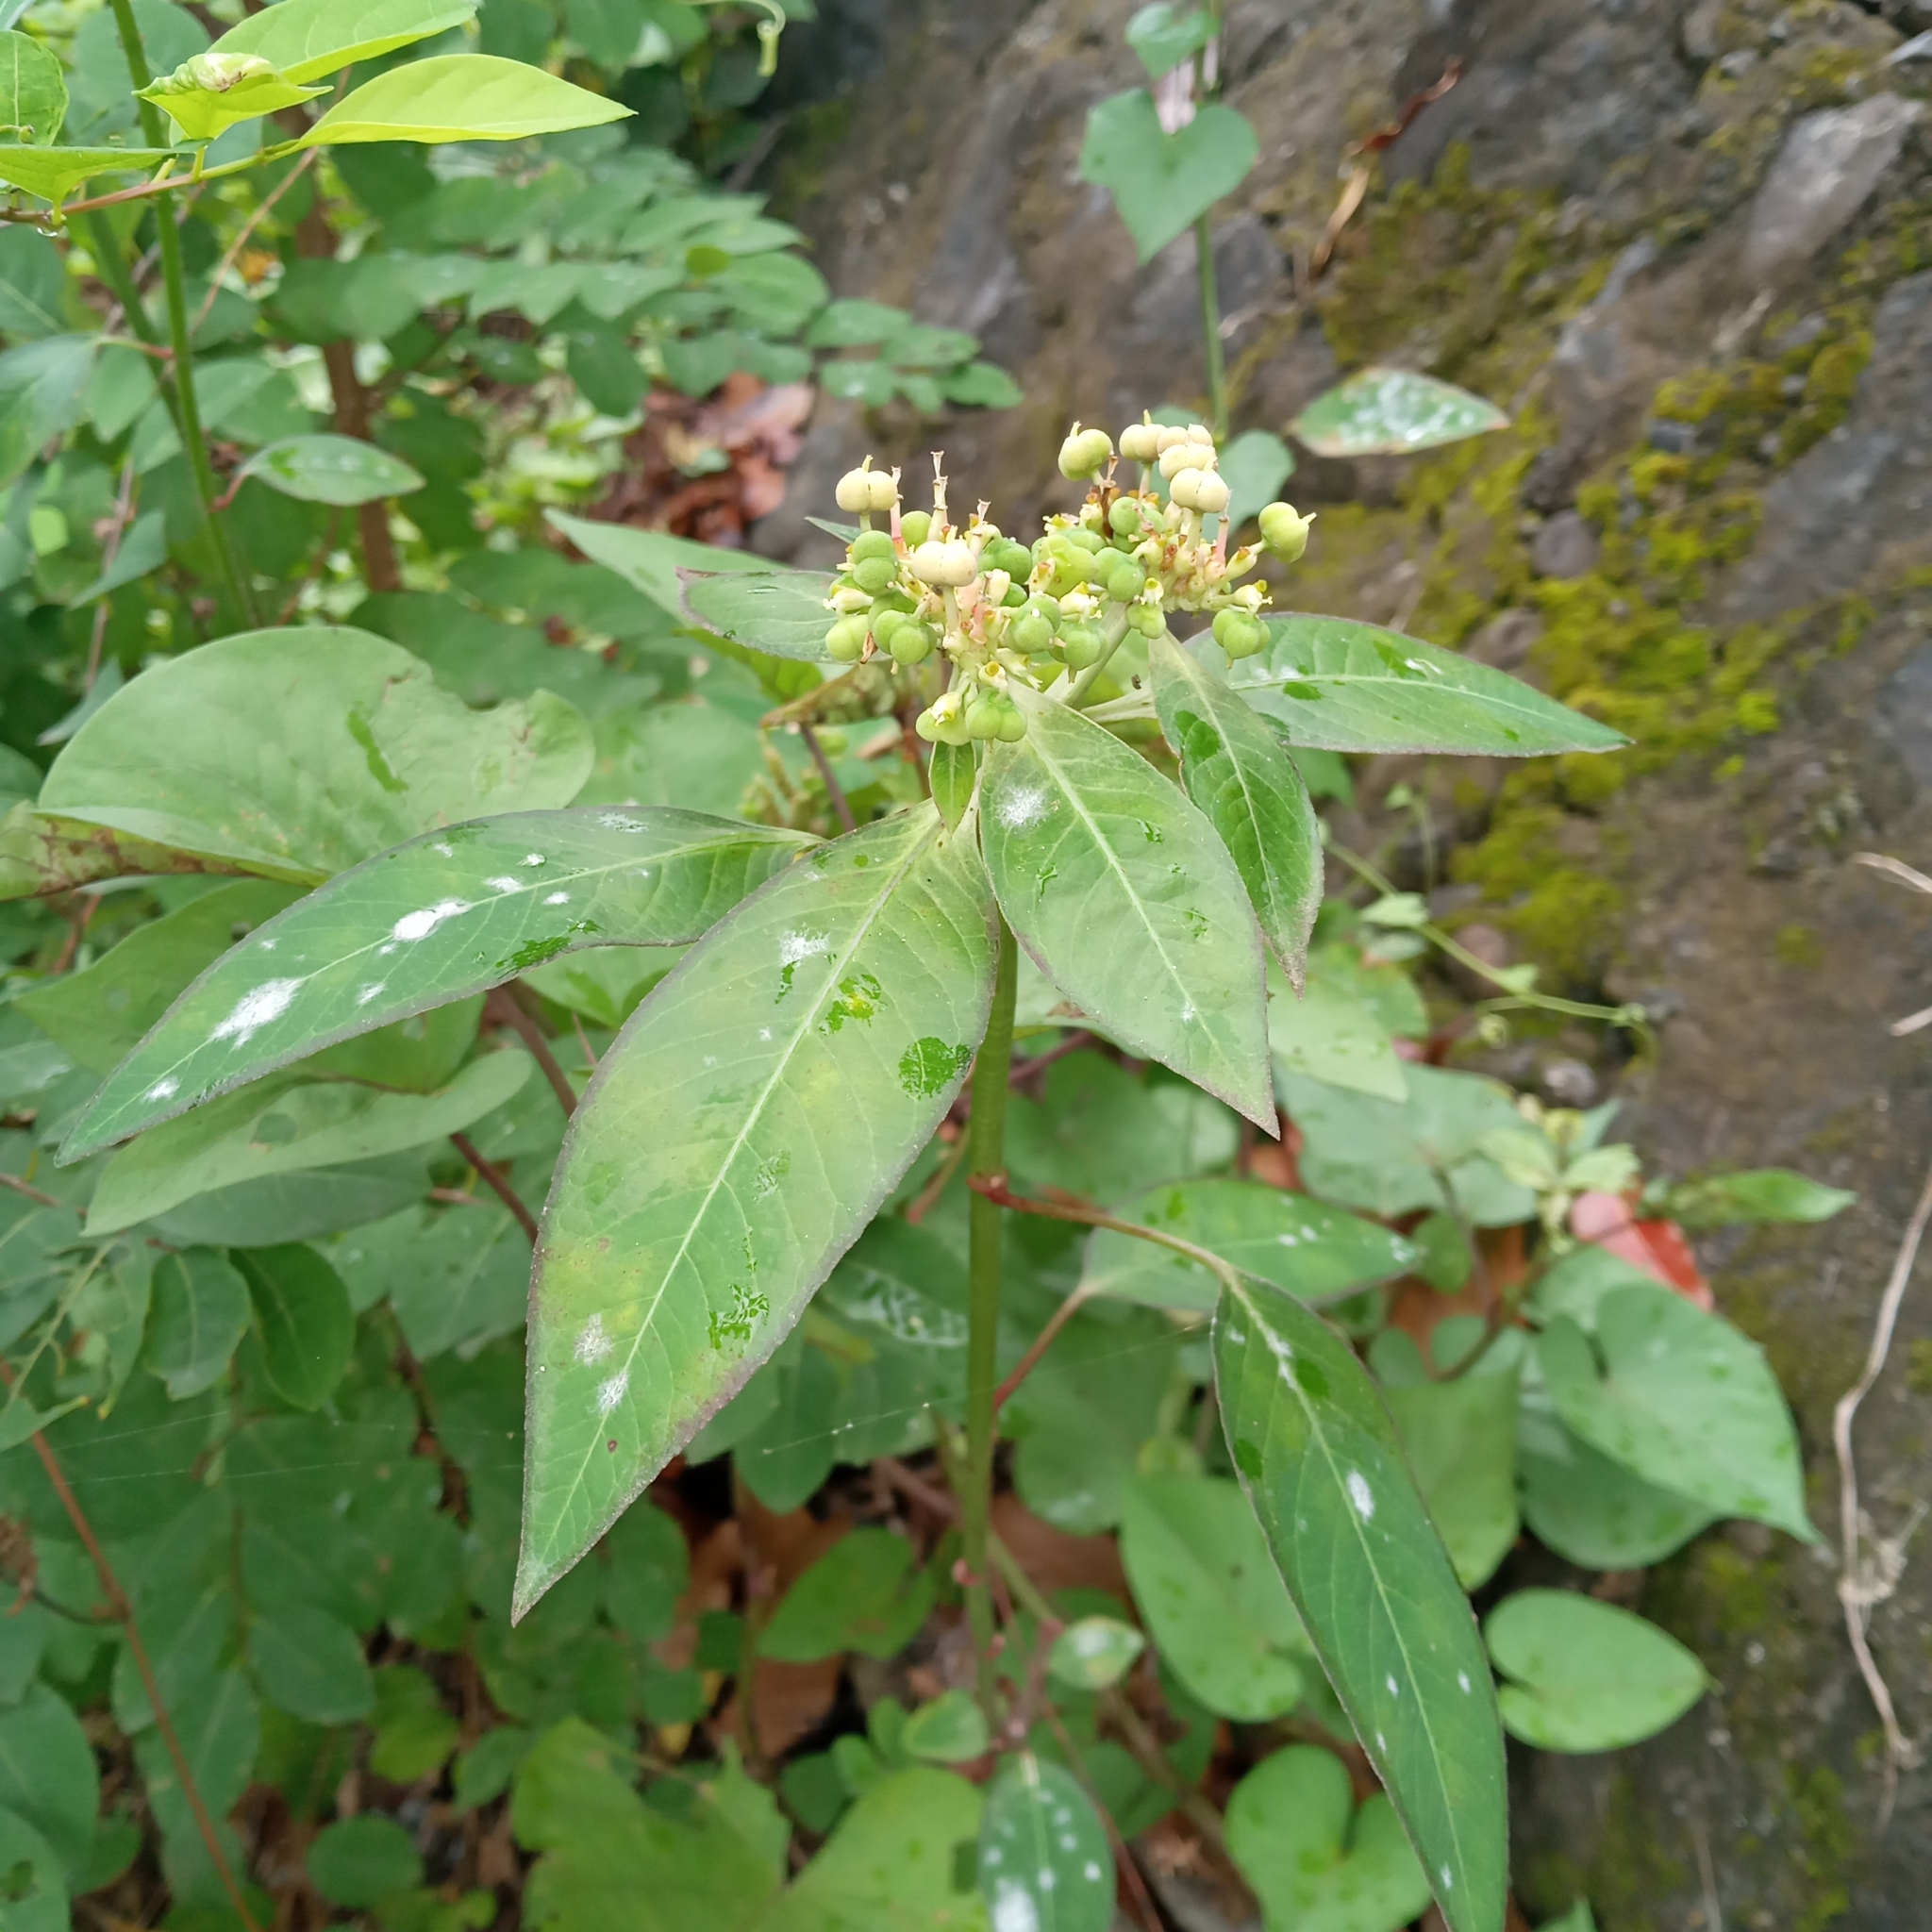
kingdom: Plantae
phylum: Tracheophyta
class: Magnoliopsida
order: Malpighiales
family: Euphorbiaceae
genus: Euphorbia
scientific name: Euphorbia heterophylla
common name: Mexican fireplant
